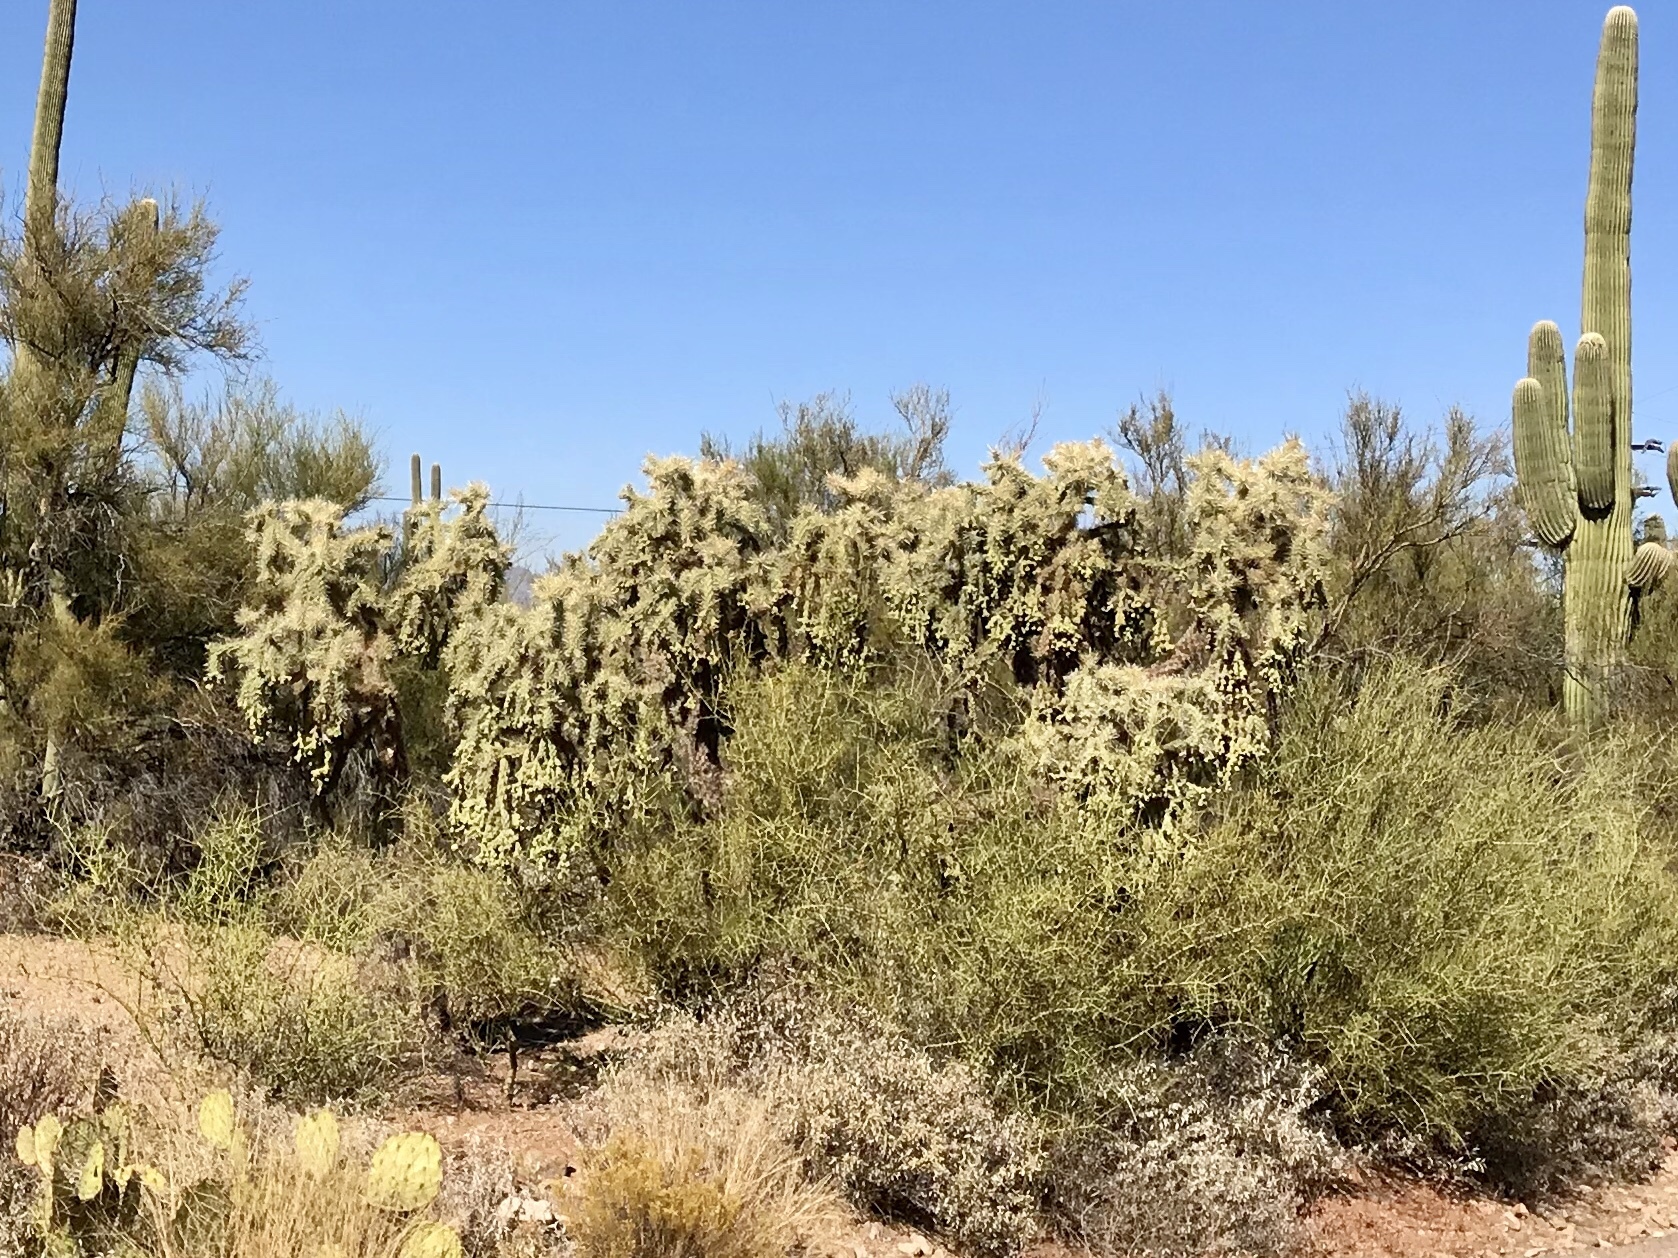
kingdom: Plantae
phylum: Tracheophyta
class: Magnoliopsida
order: Caryophyllales
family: Cactaceae
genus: Cylindropuntia
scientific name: Cylindropuntia fulgida
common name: Jumping cholla
